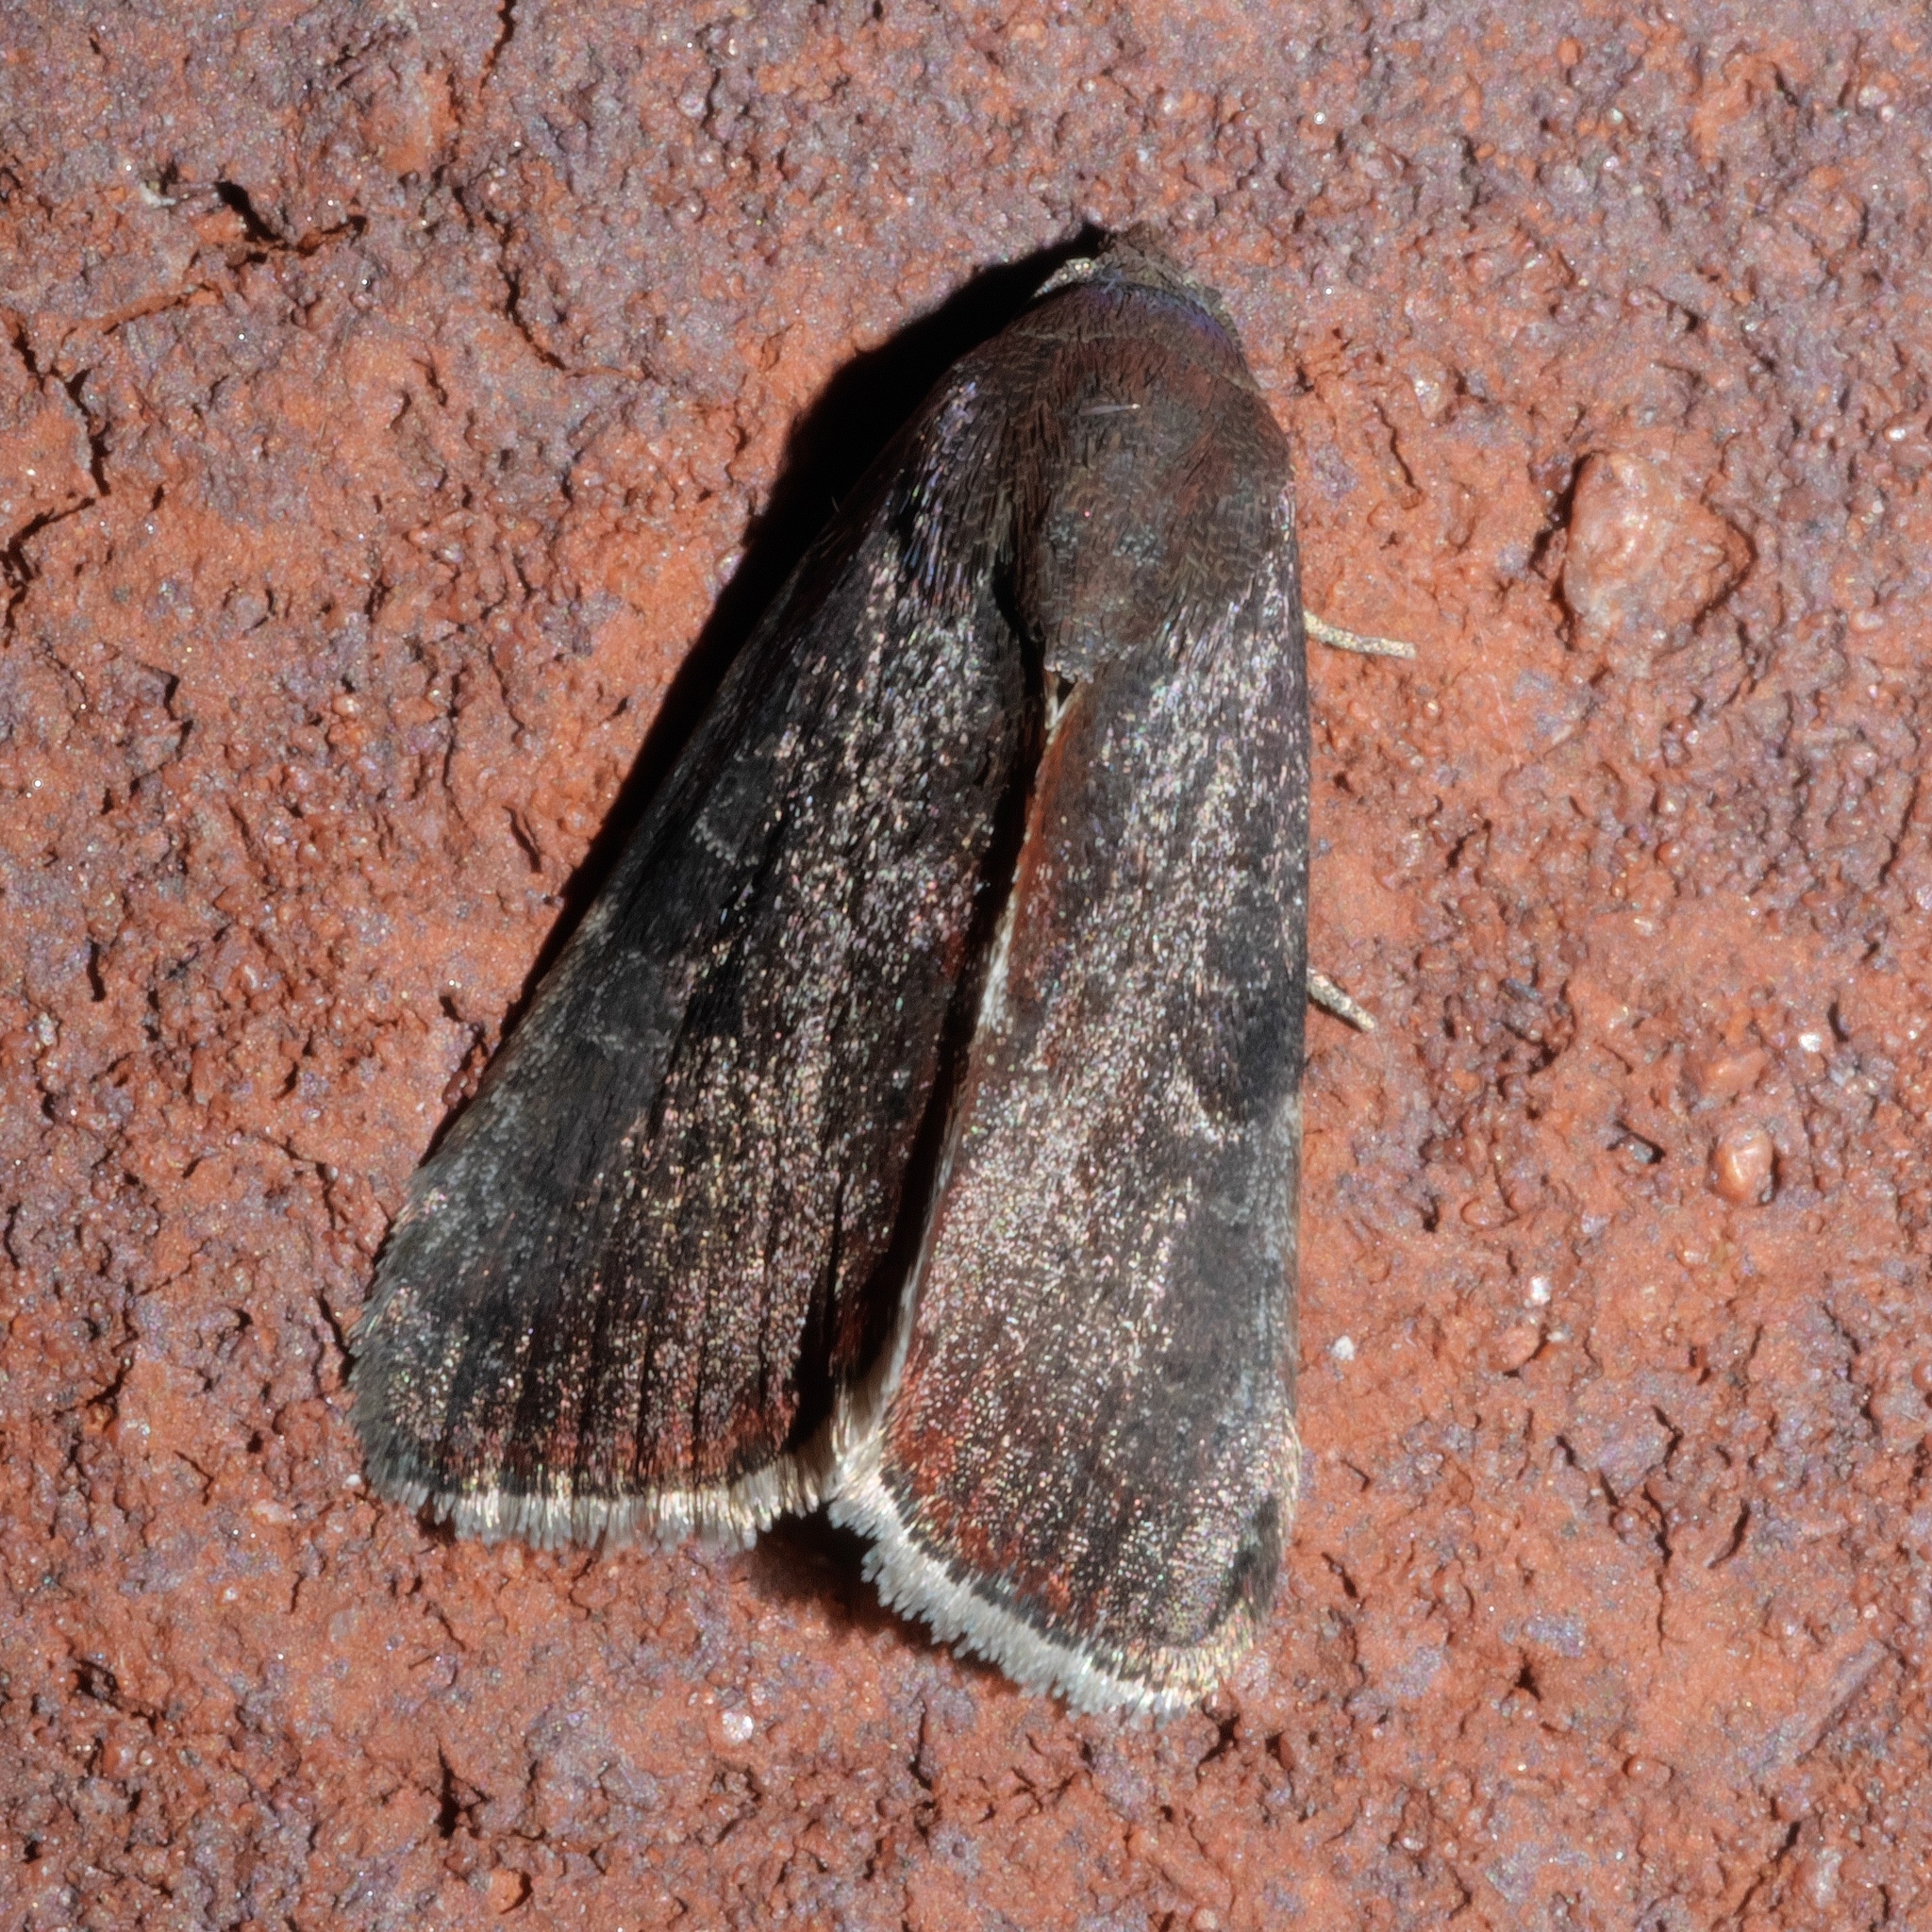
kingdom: Animalia
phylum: Arthropoda
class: Insecta
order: Lepidoptera
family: Noctuidae
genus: Galgula
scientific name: Galgula partita
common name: Wedgeling
